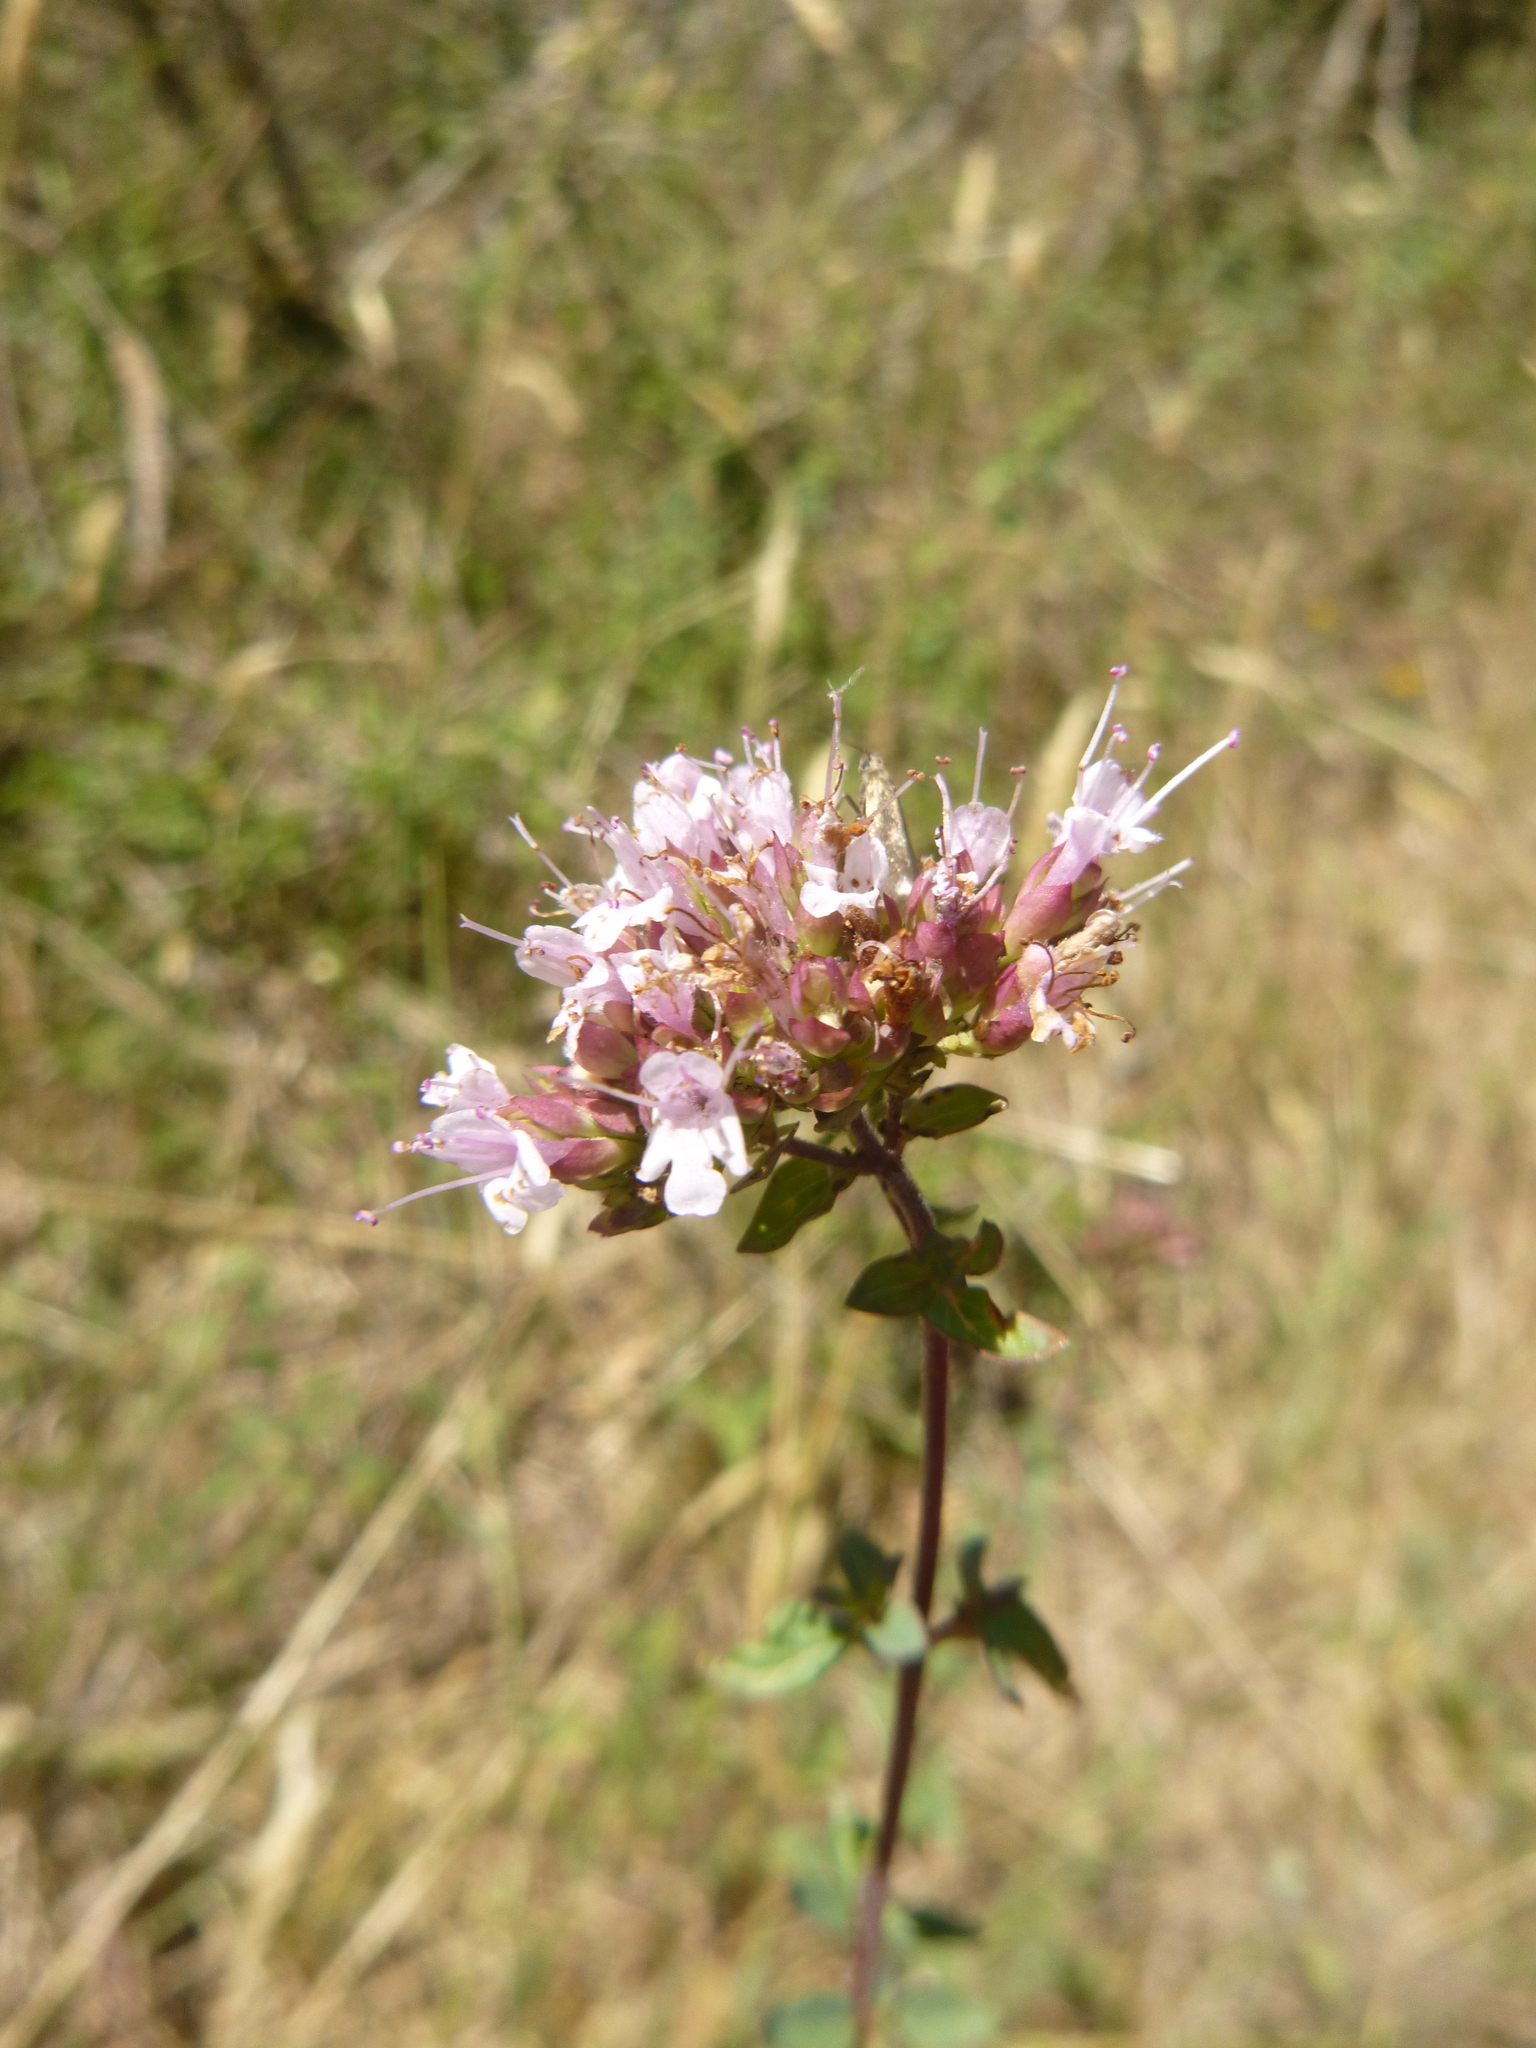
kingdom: Plantae
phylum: Tracheophyta
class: Magnoliopsida
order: Lamiales
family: Lamiaceae
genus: Origanum
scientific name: Origanum vulgare
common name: Wild marjoram
